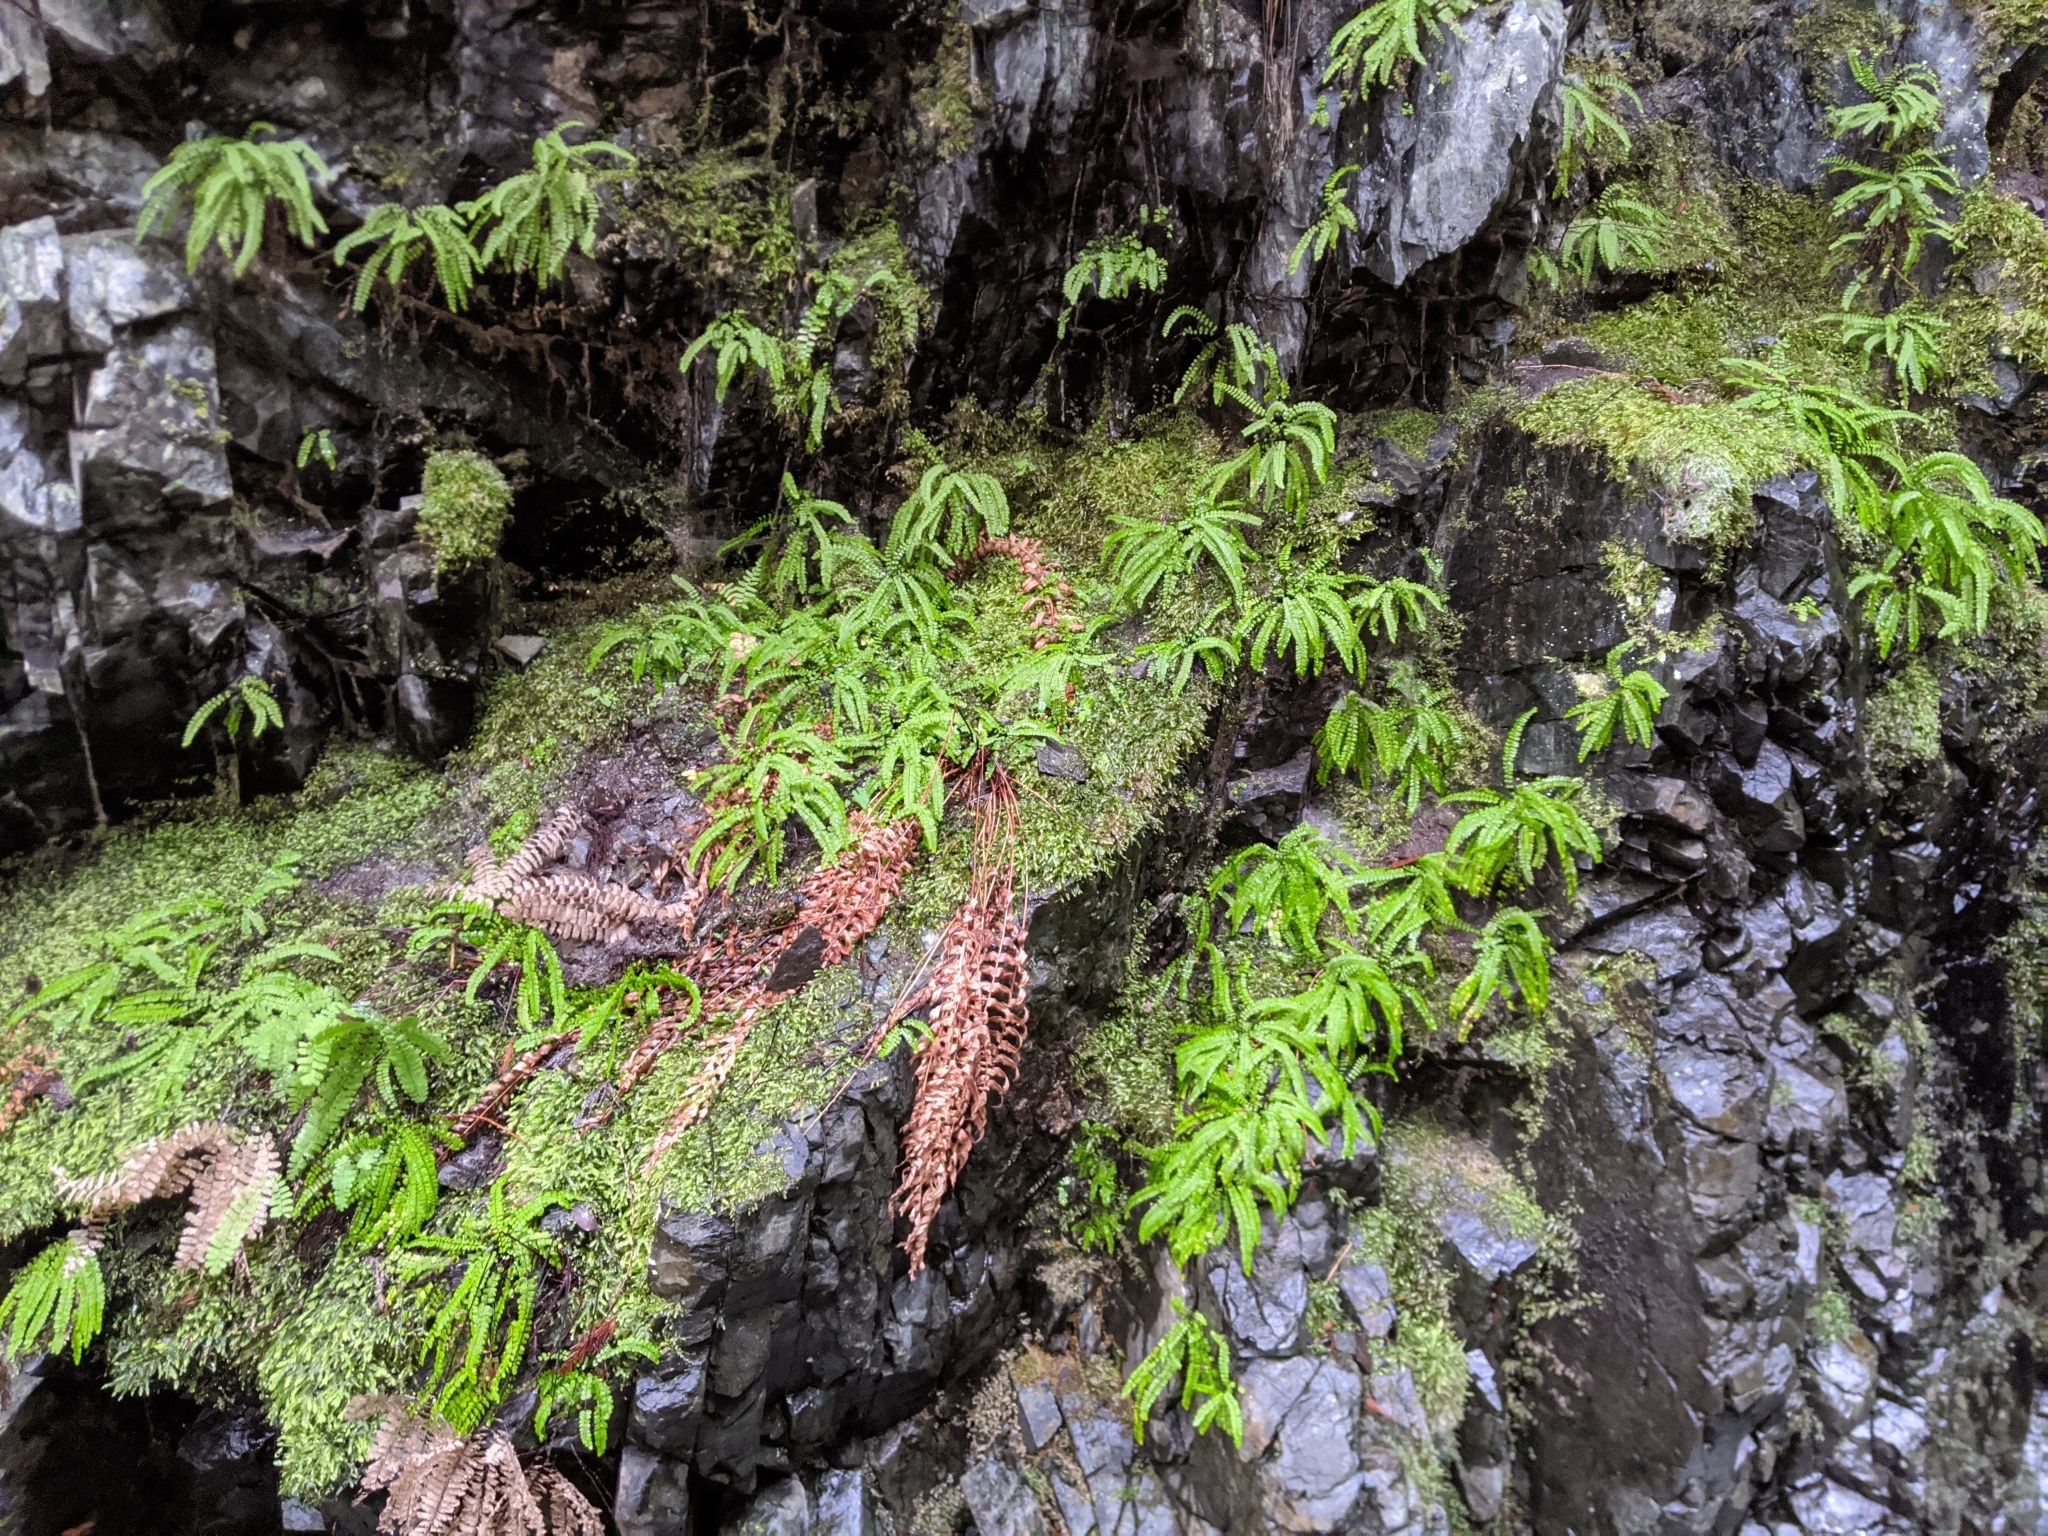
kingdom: Plantae
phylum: Tracheophyta
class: Polypodiopsida
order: Polypodiales
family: Aspleniaceae
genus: Asplenium
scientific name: Asplenium trichomanes
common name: Maidenhair spleenwort
